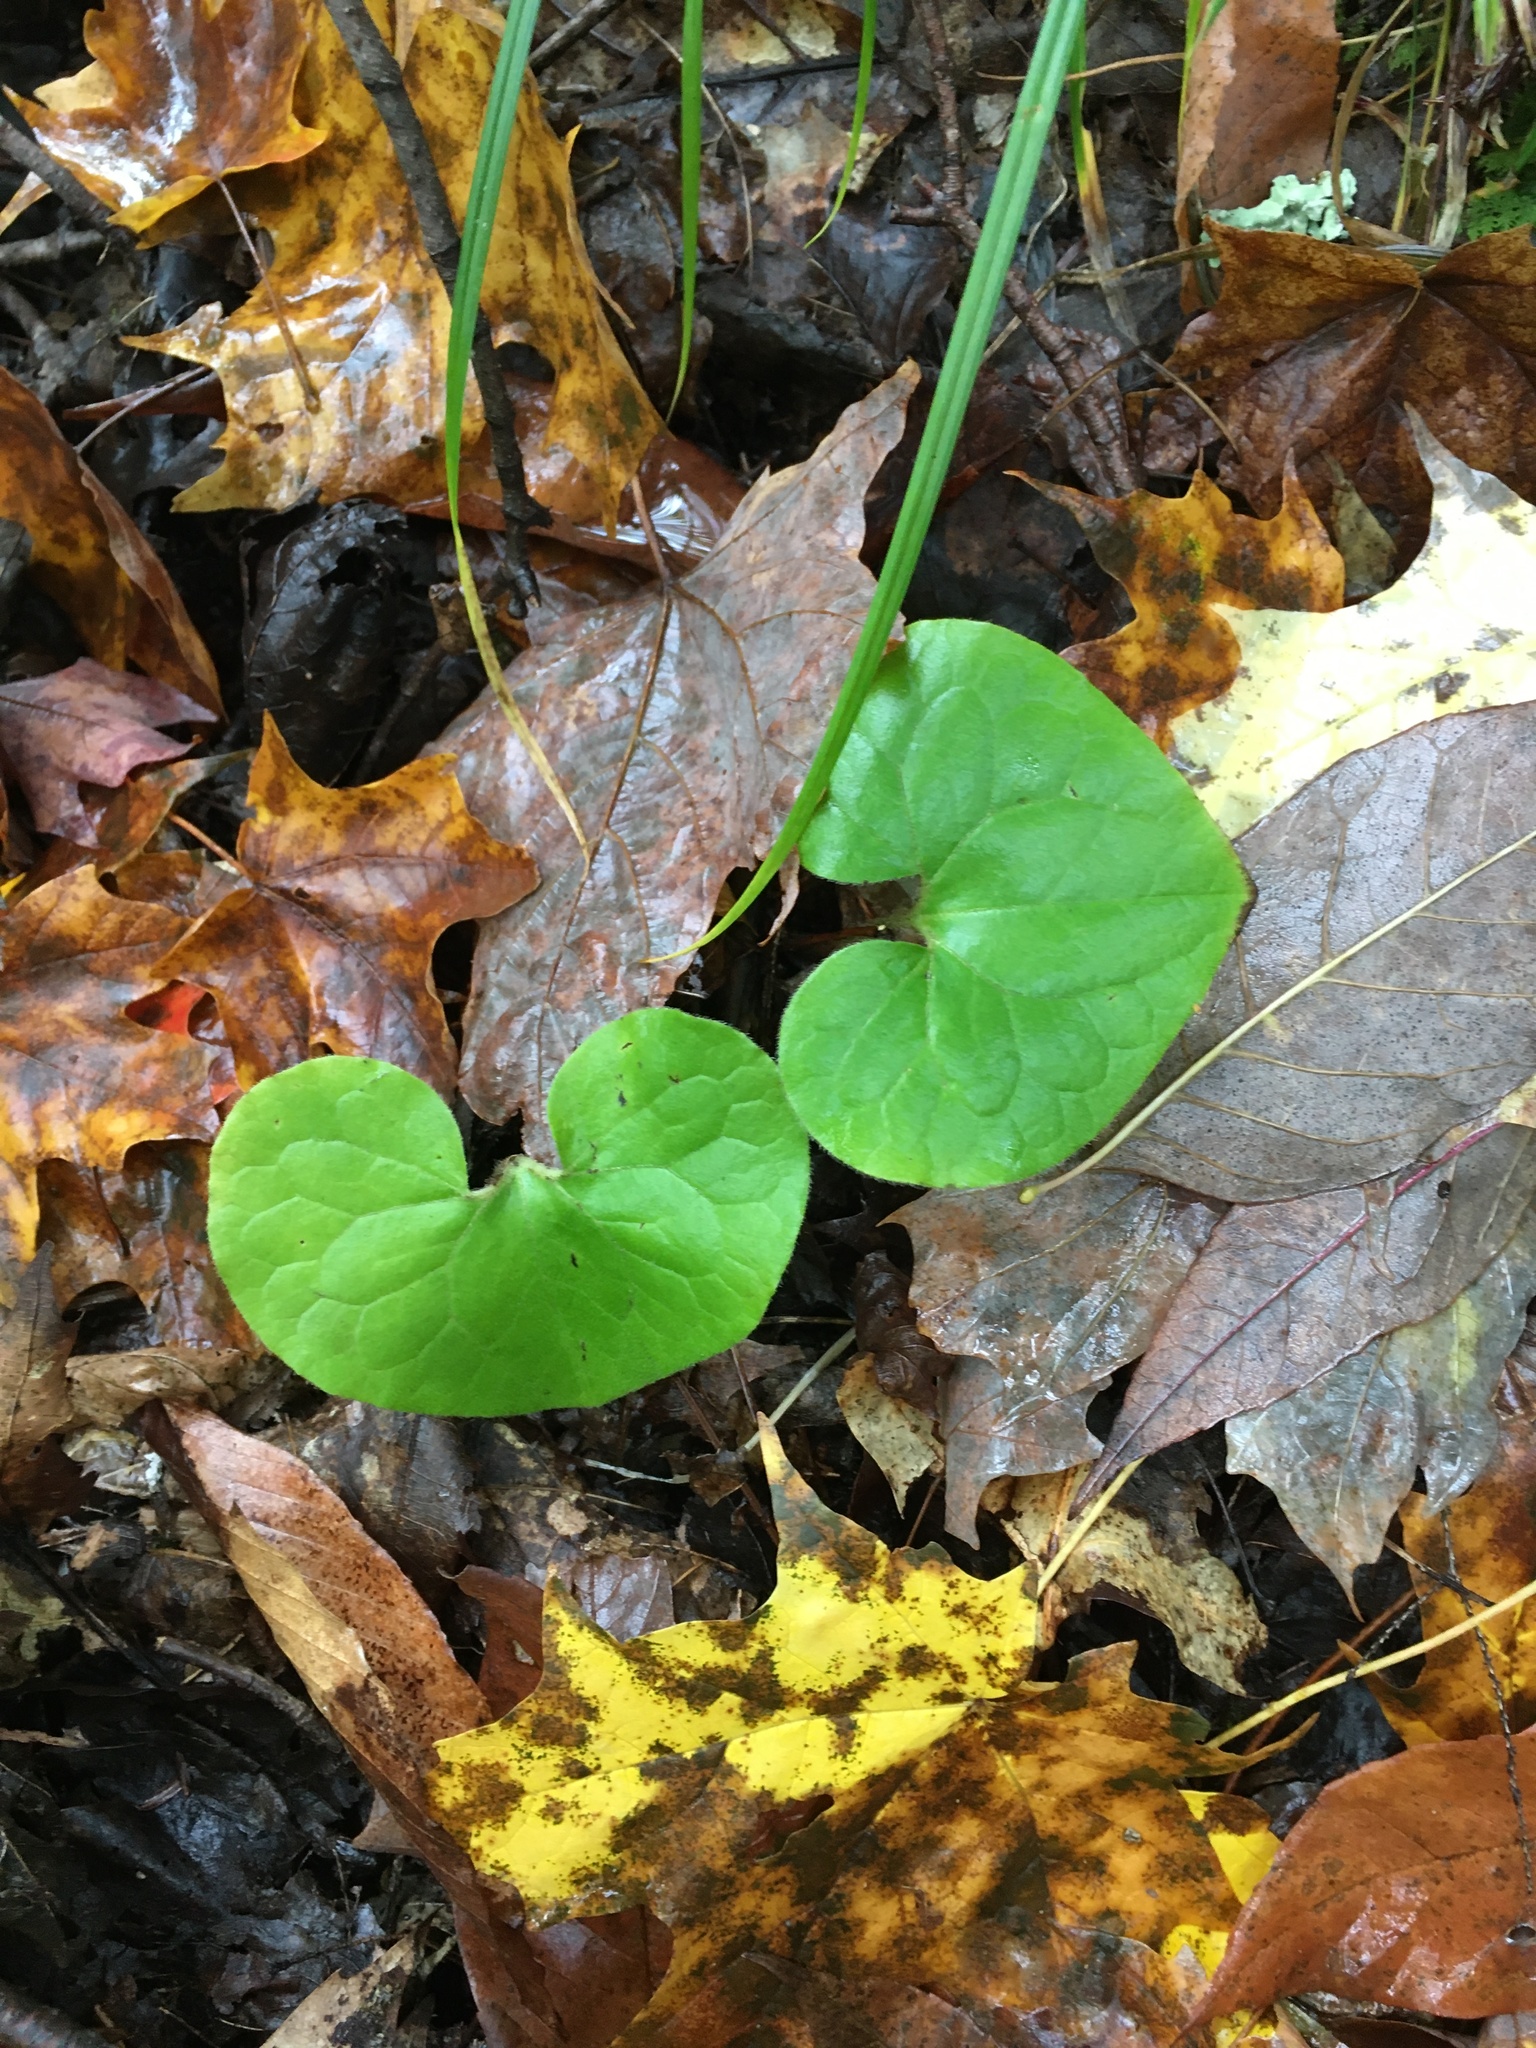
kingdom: Plantae
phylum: Tracheophyta
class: Magnoliopsida
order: Piperales
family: Aristolochiaceae
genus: Asarum
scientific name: Asarum canadense
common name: Wild ginger
